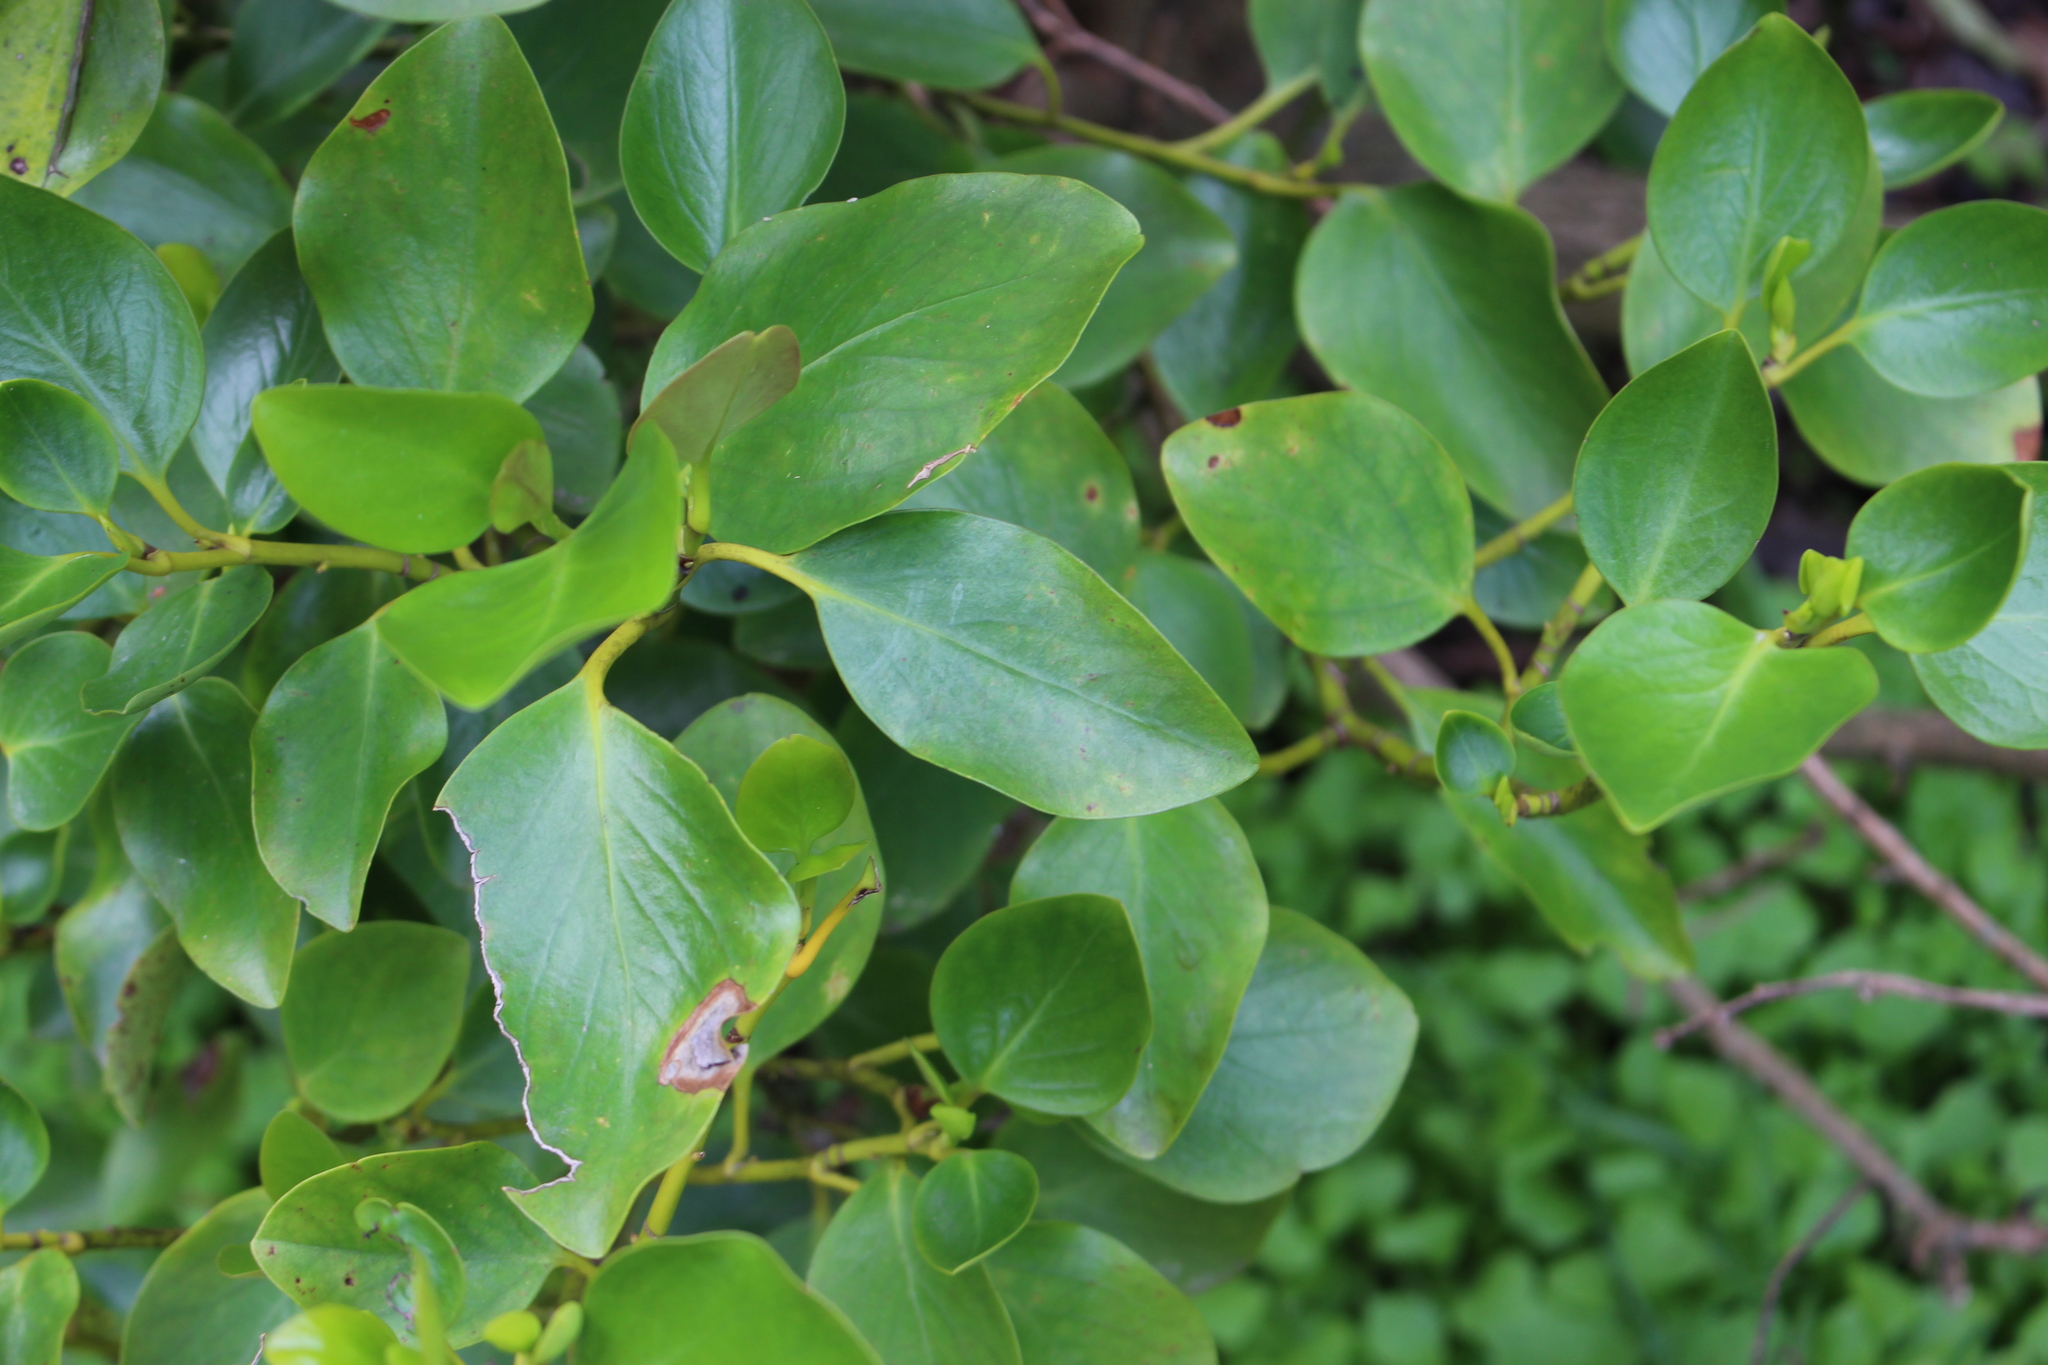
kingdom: Plantae
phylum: Tracheophyta
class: Magnoliopsida
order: Apiales
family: Griseliniaceae
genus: Griselinia
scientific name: Griselinia littoralis
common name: New zealand broadleaf
